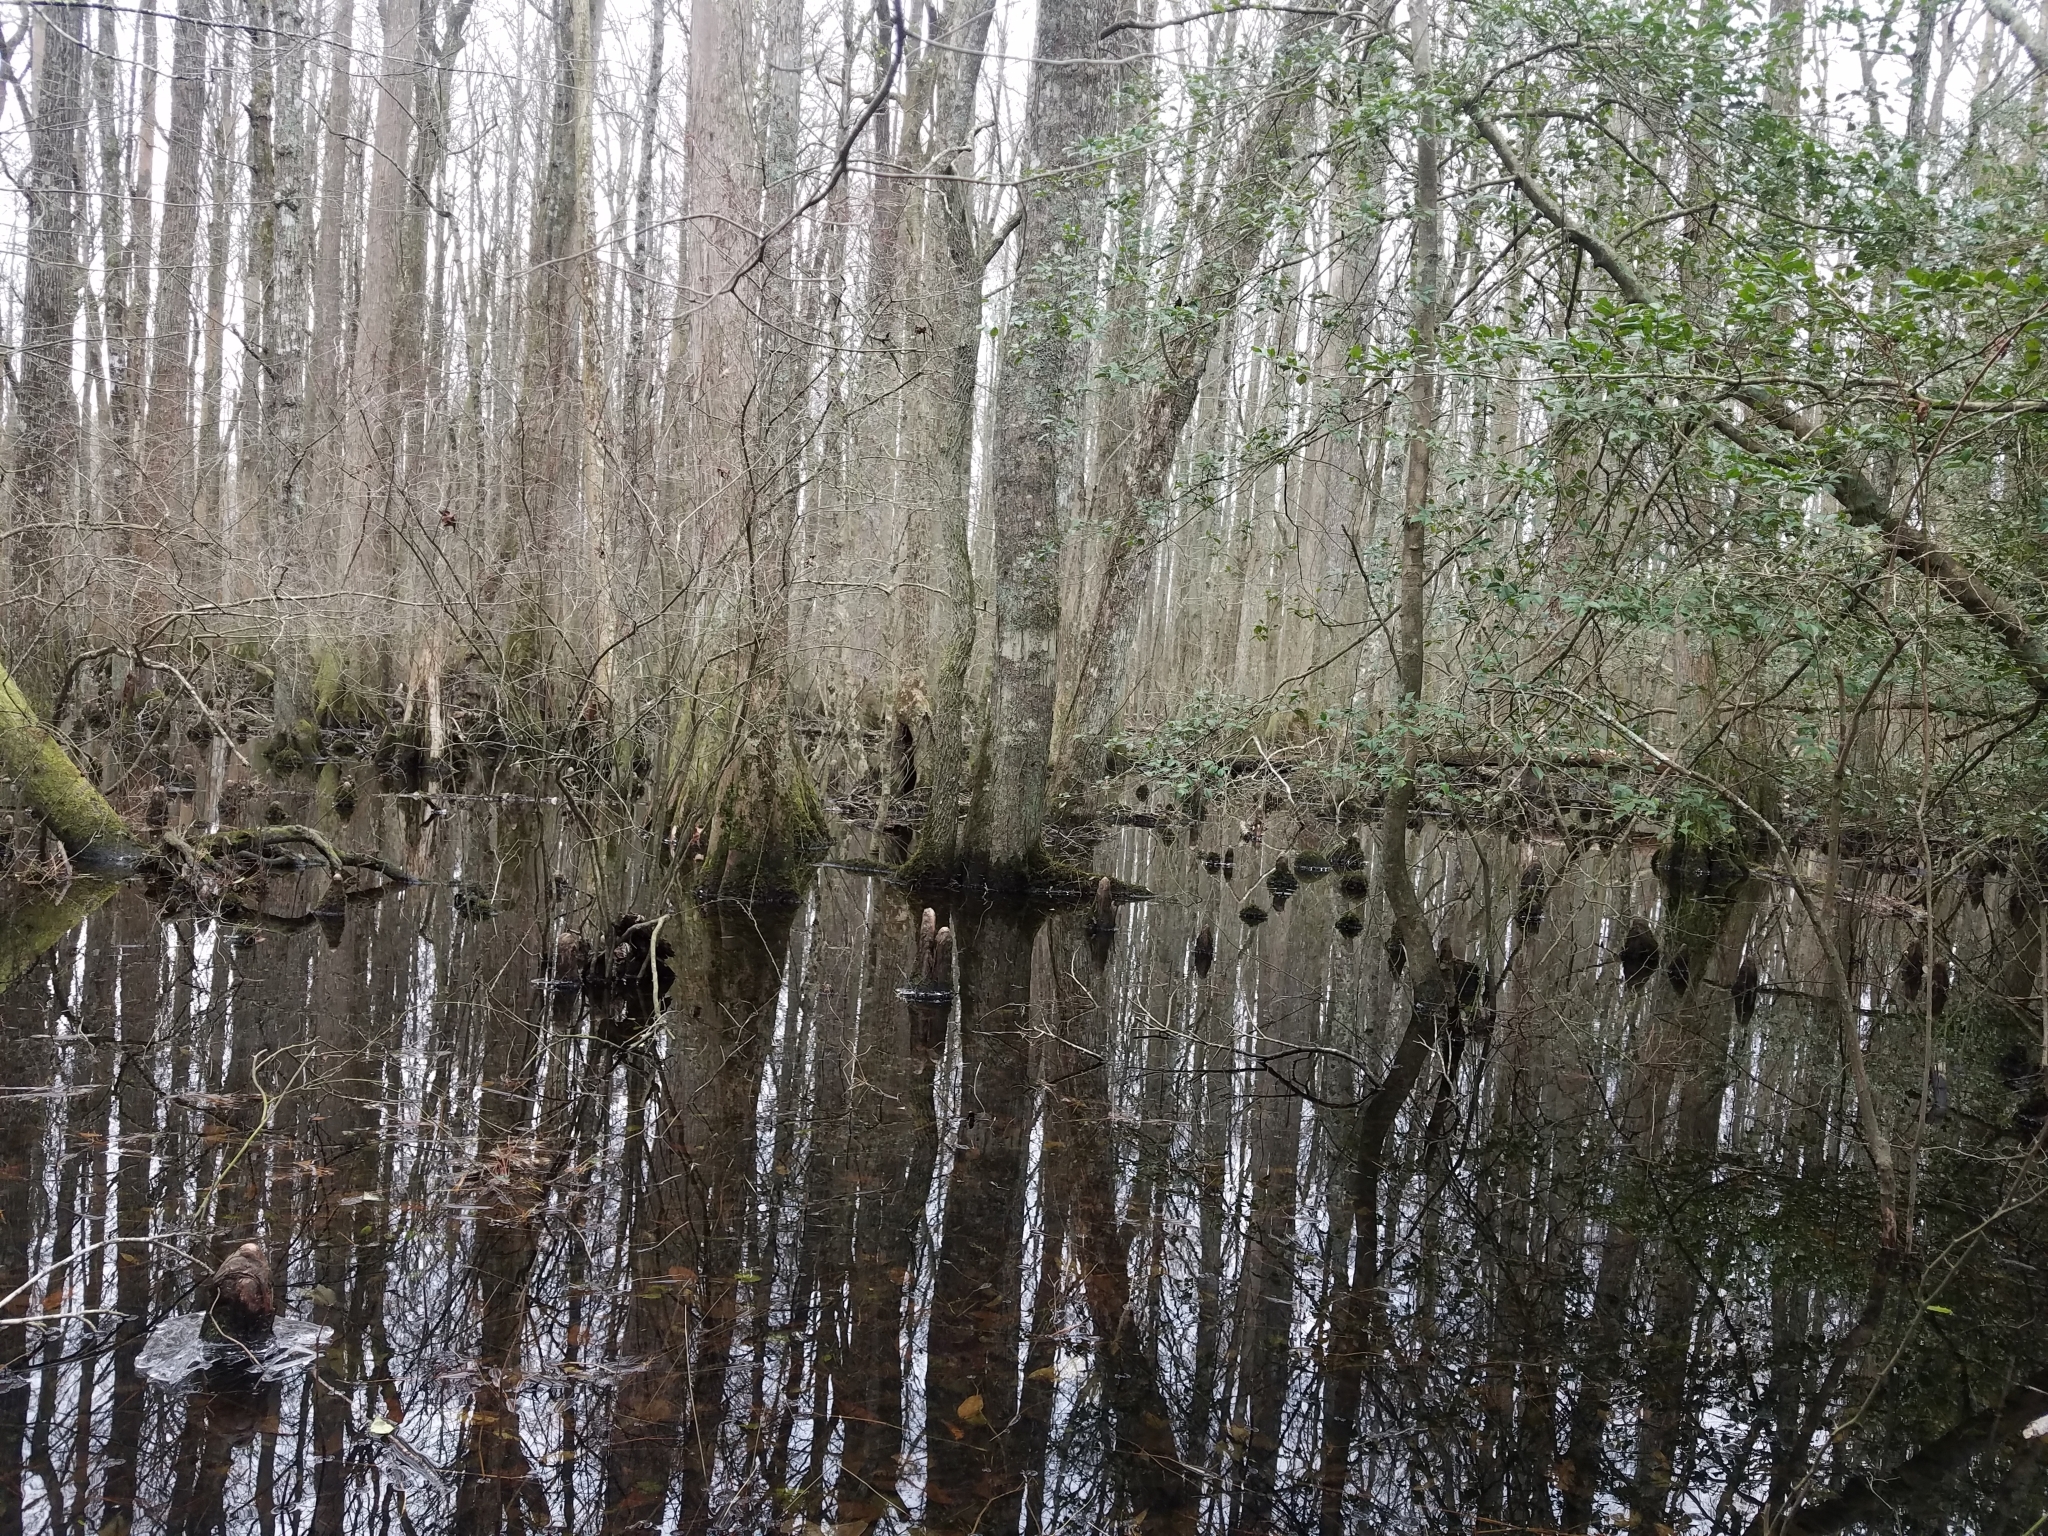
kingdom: Plantae
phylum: Tracheophyta
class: Pinopsida
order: Pinales
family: Cupressaceae
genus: Taxodium
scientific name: Taxodium distichum
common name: Bald cypress
